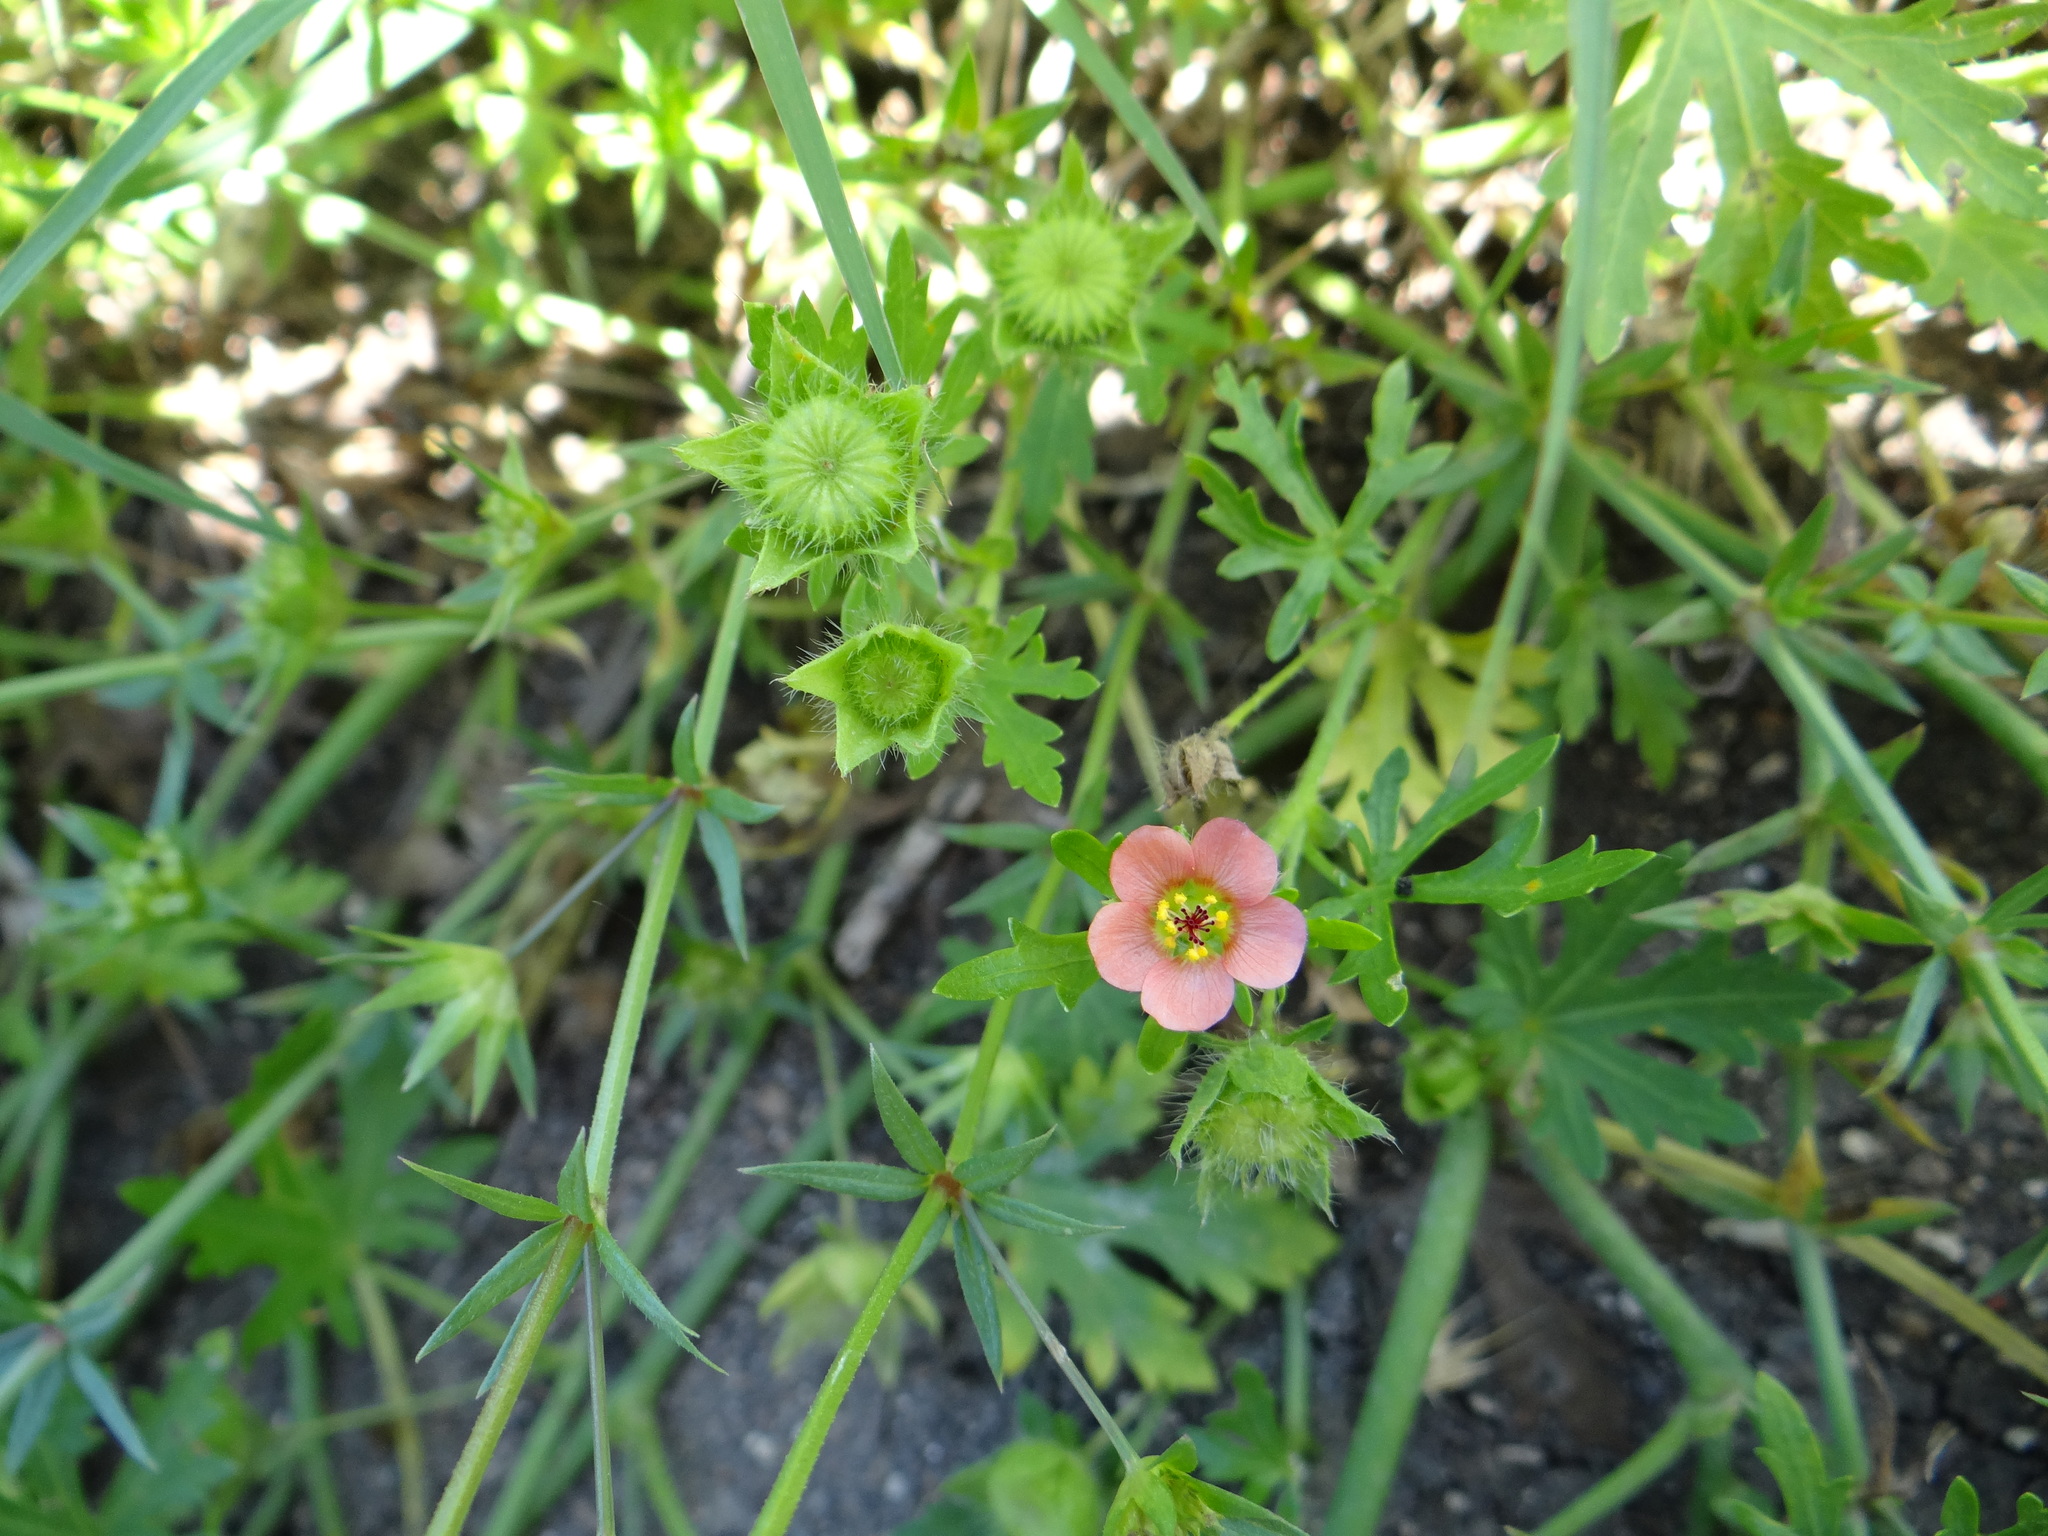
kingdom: Plantae
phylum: Tracheophyta
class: Magnoliopsida
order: Malvales
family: Malvaceae
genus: Modiola
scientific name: Modiola caroliniana
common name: Carolina bristlemallow
